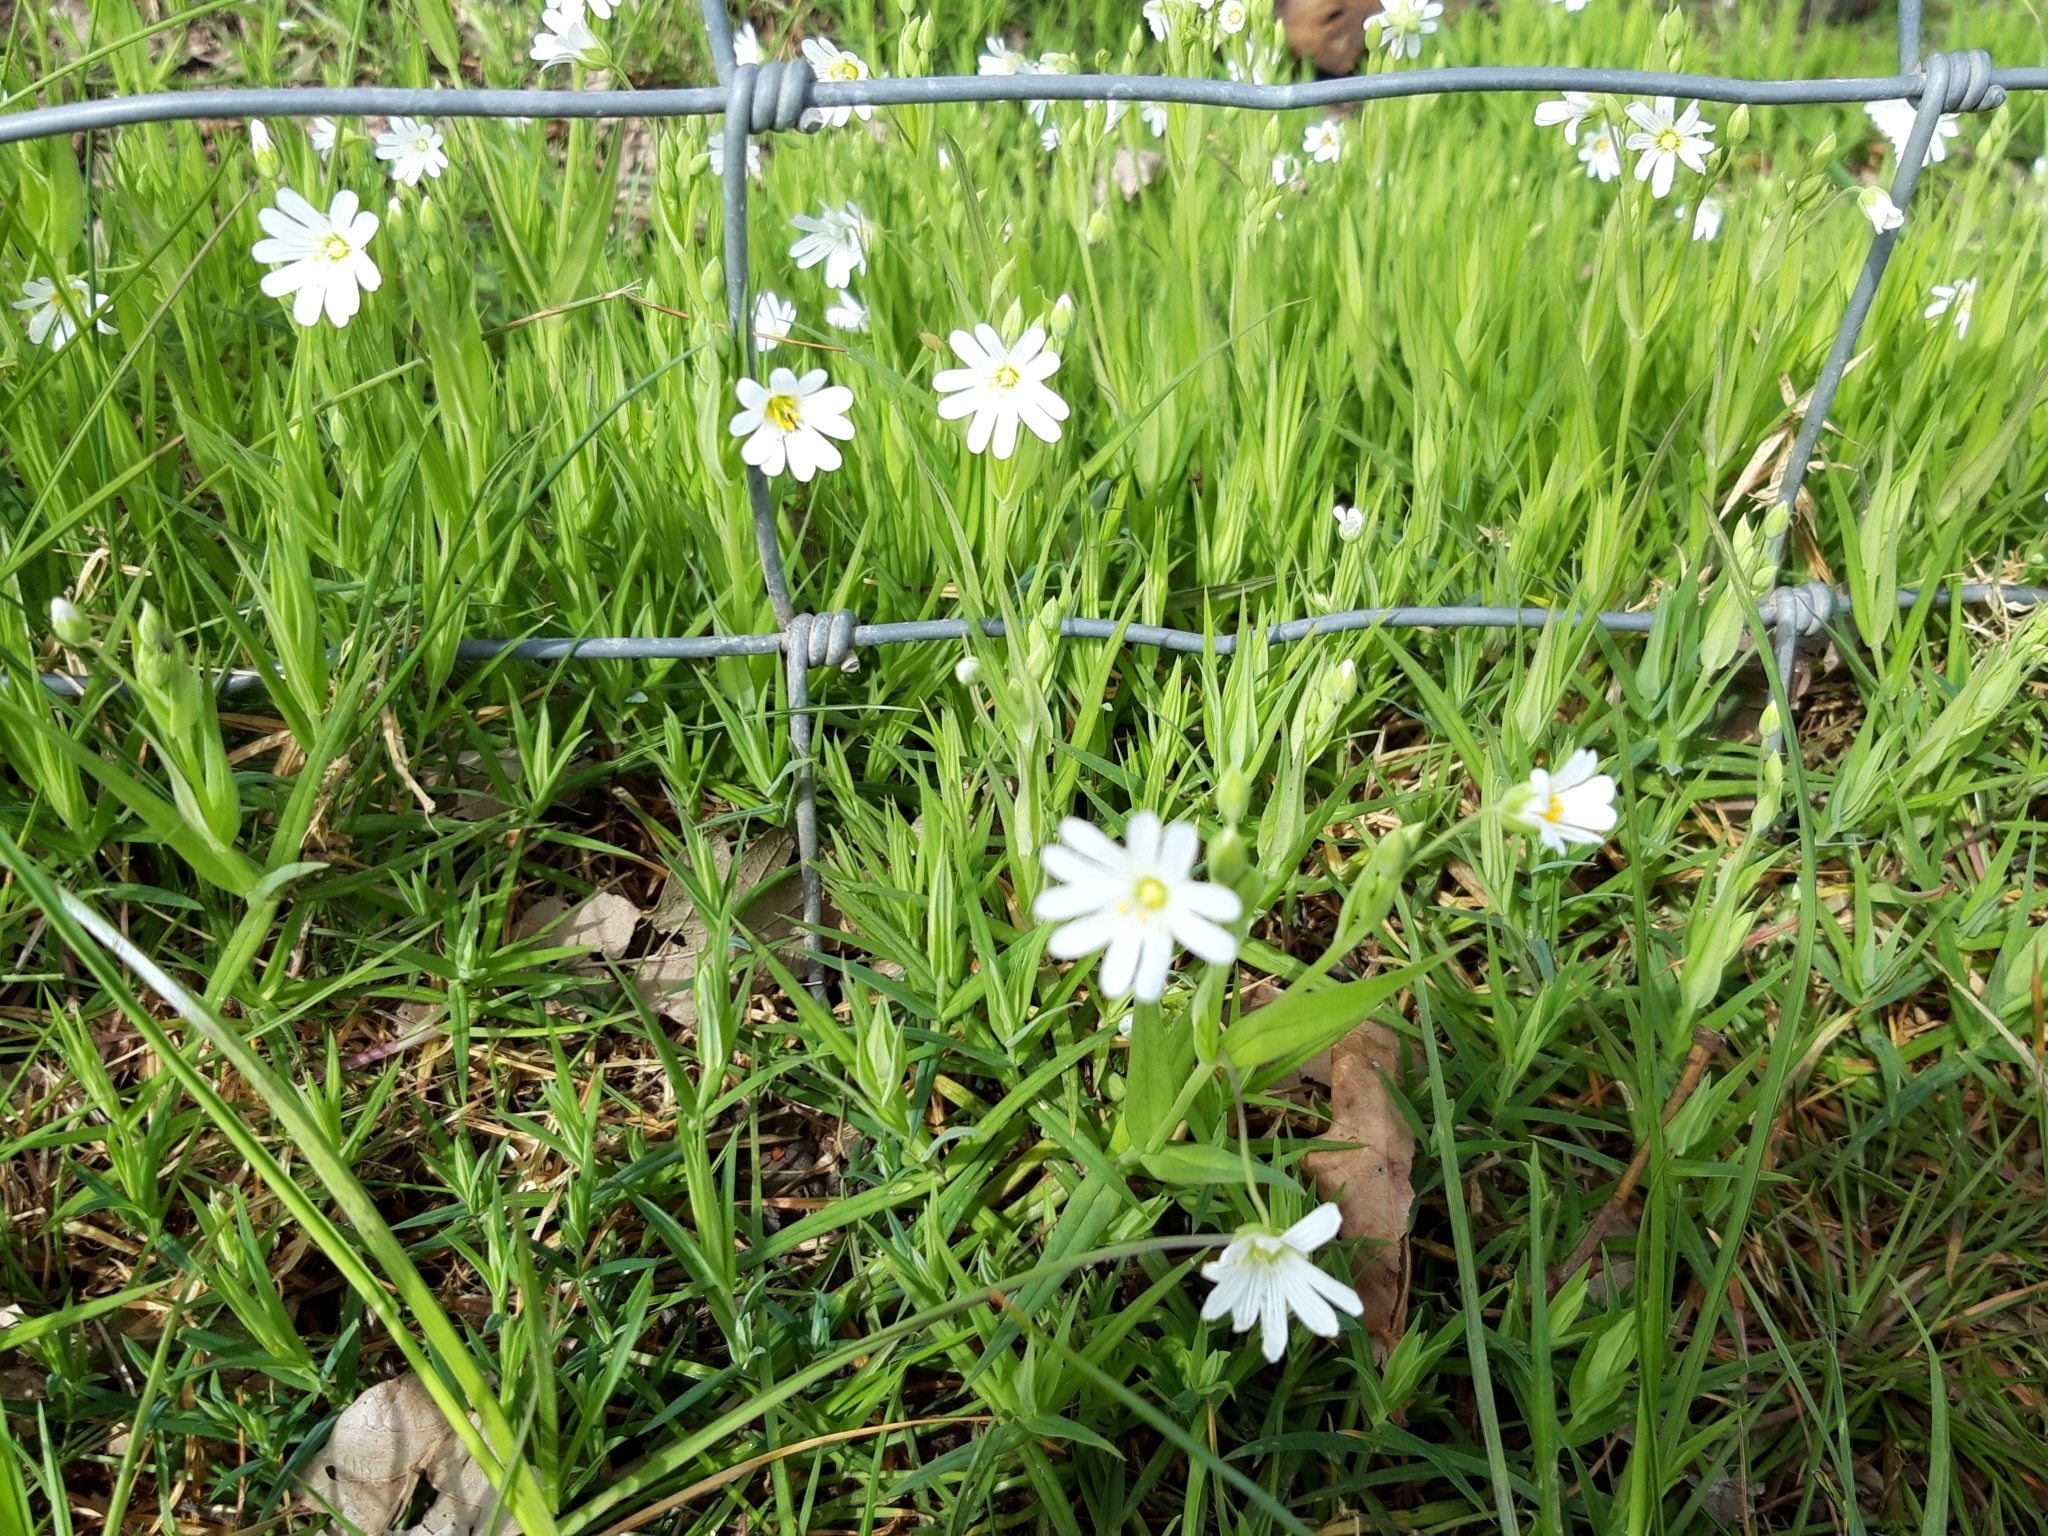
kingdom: Plantae
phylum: Tracheophyta
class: Magnoliopsida
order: Caryophyllales
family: Caryophyllaceae
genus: Rabelera
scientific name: Rabelera holostea
